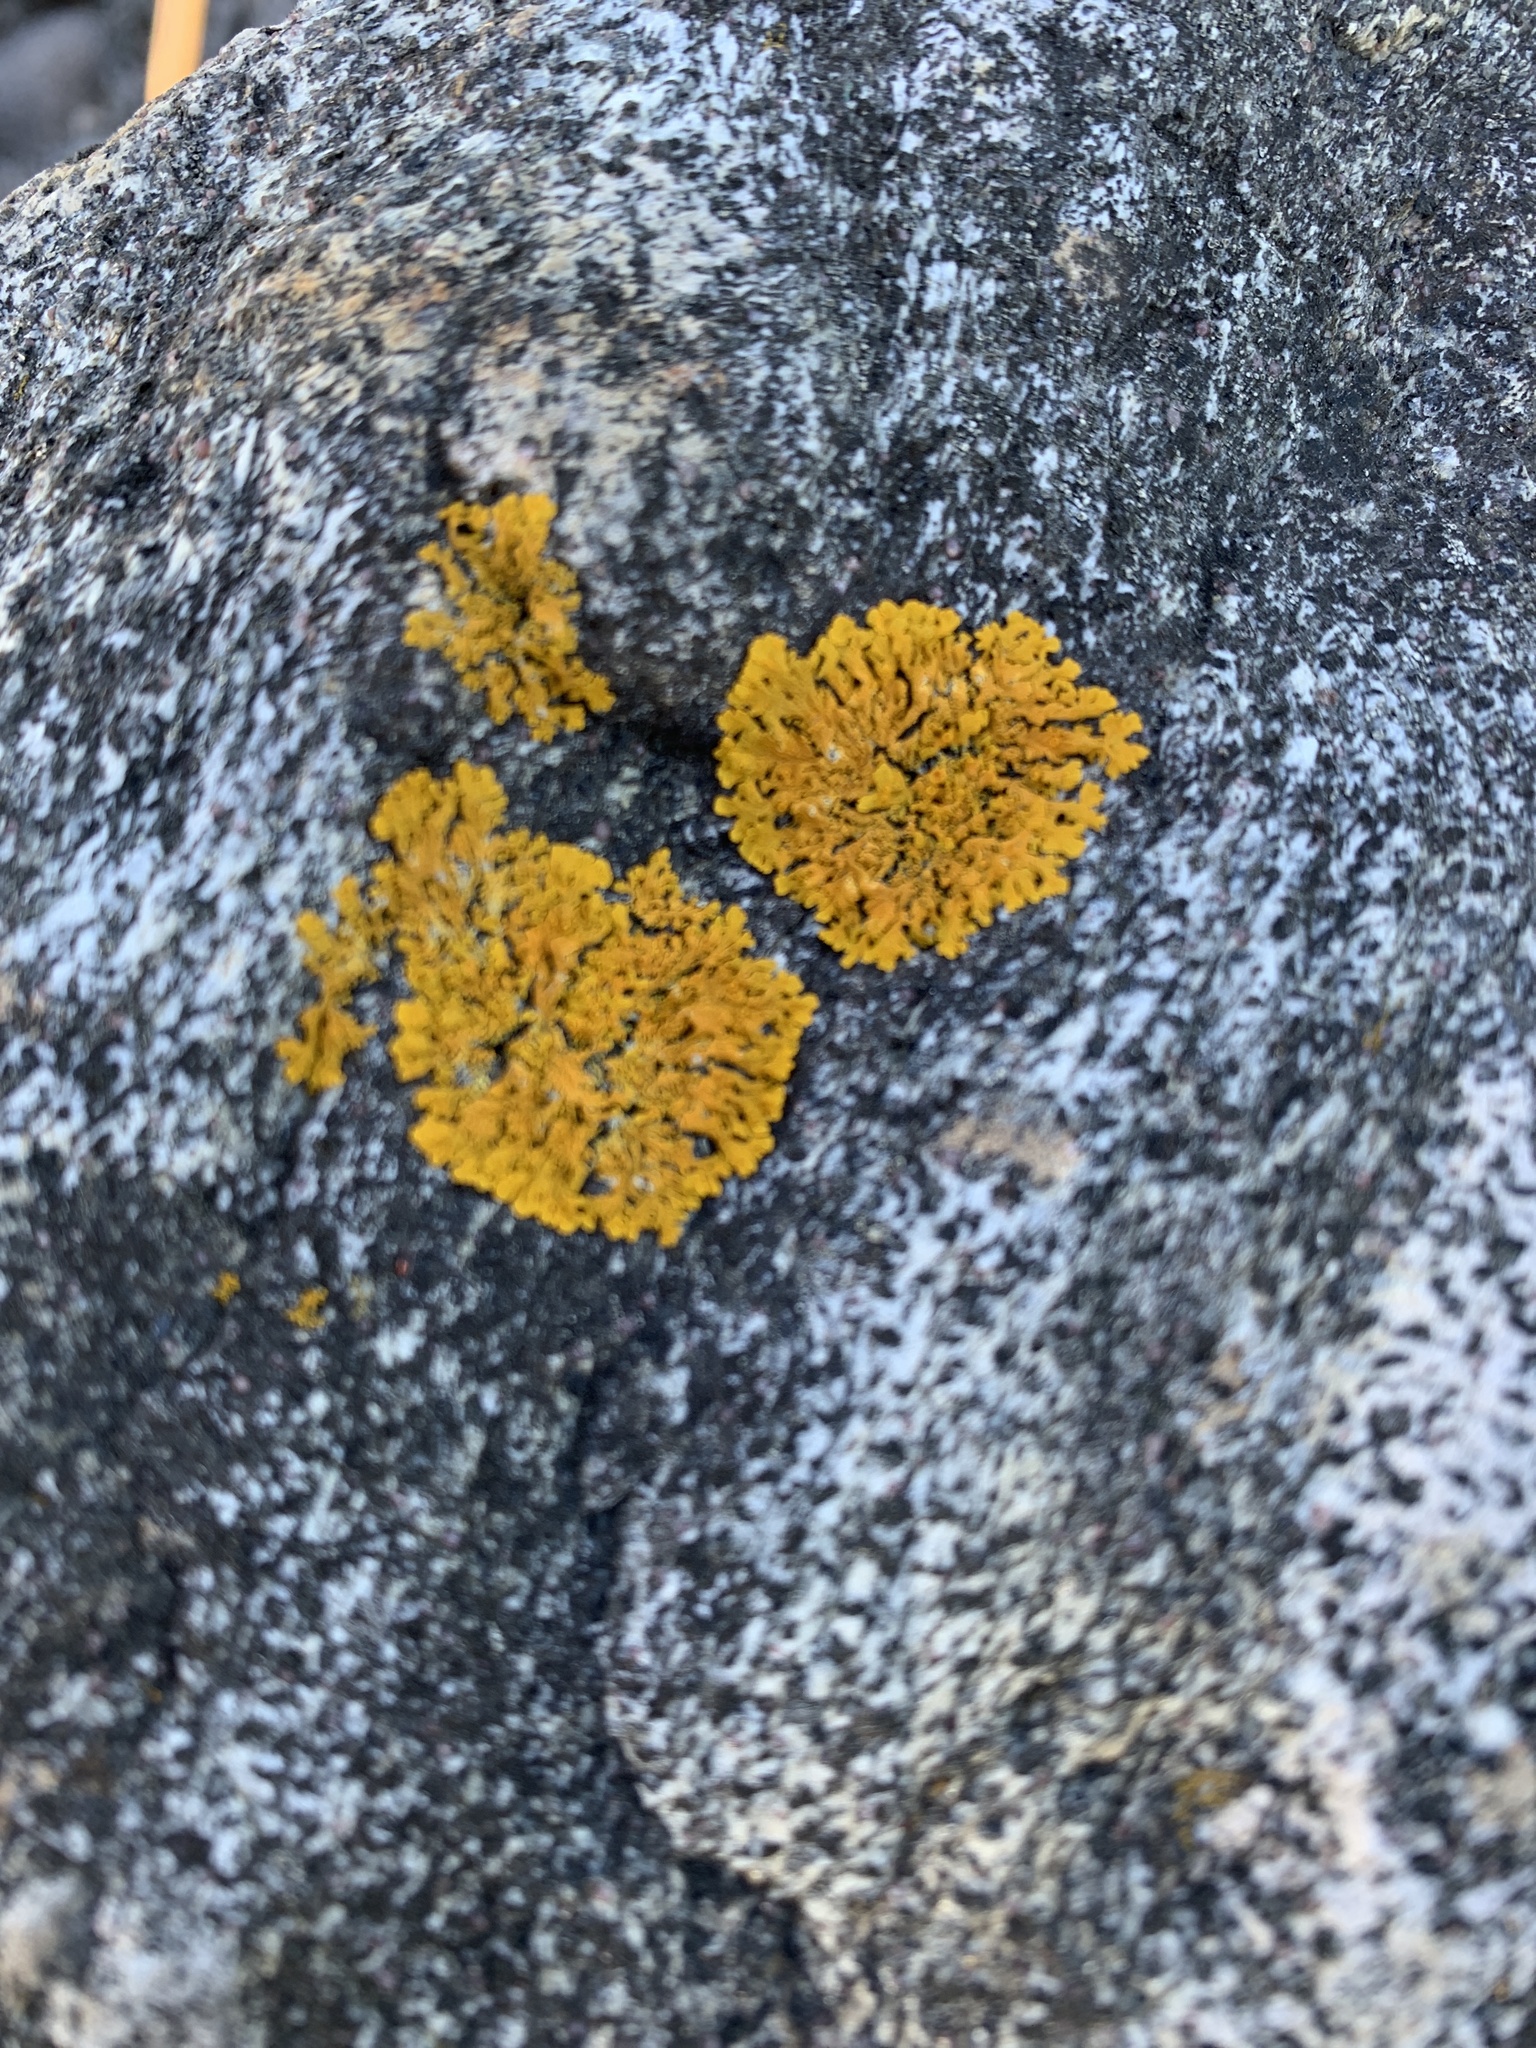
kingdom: Fungi
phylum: Ascomycota
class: Lecanoromycetes
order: Teloschistales
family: Teloschistaceae
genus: Xanthoria
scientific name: Xanthoria parietina
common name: Common orange lichen
